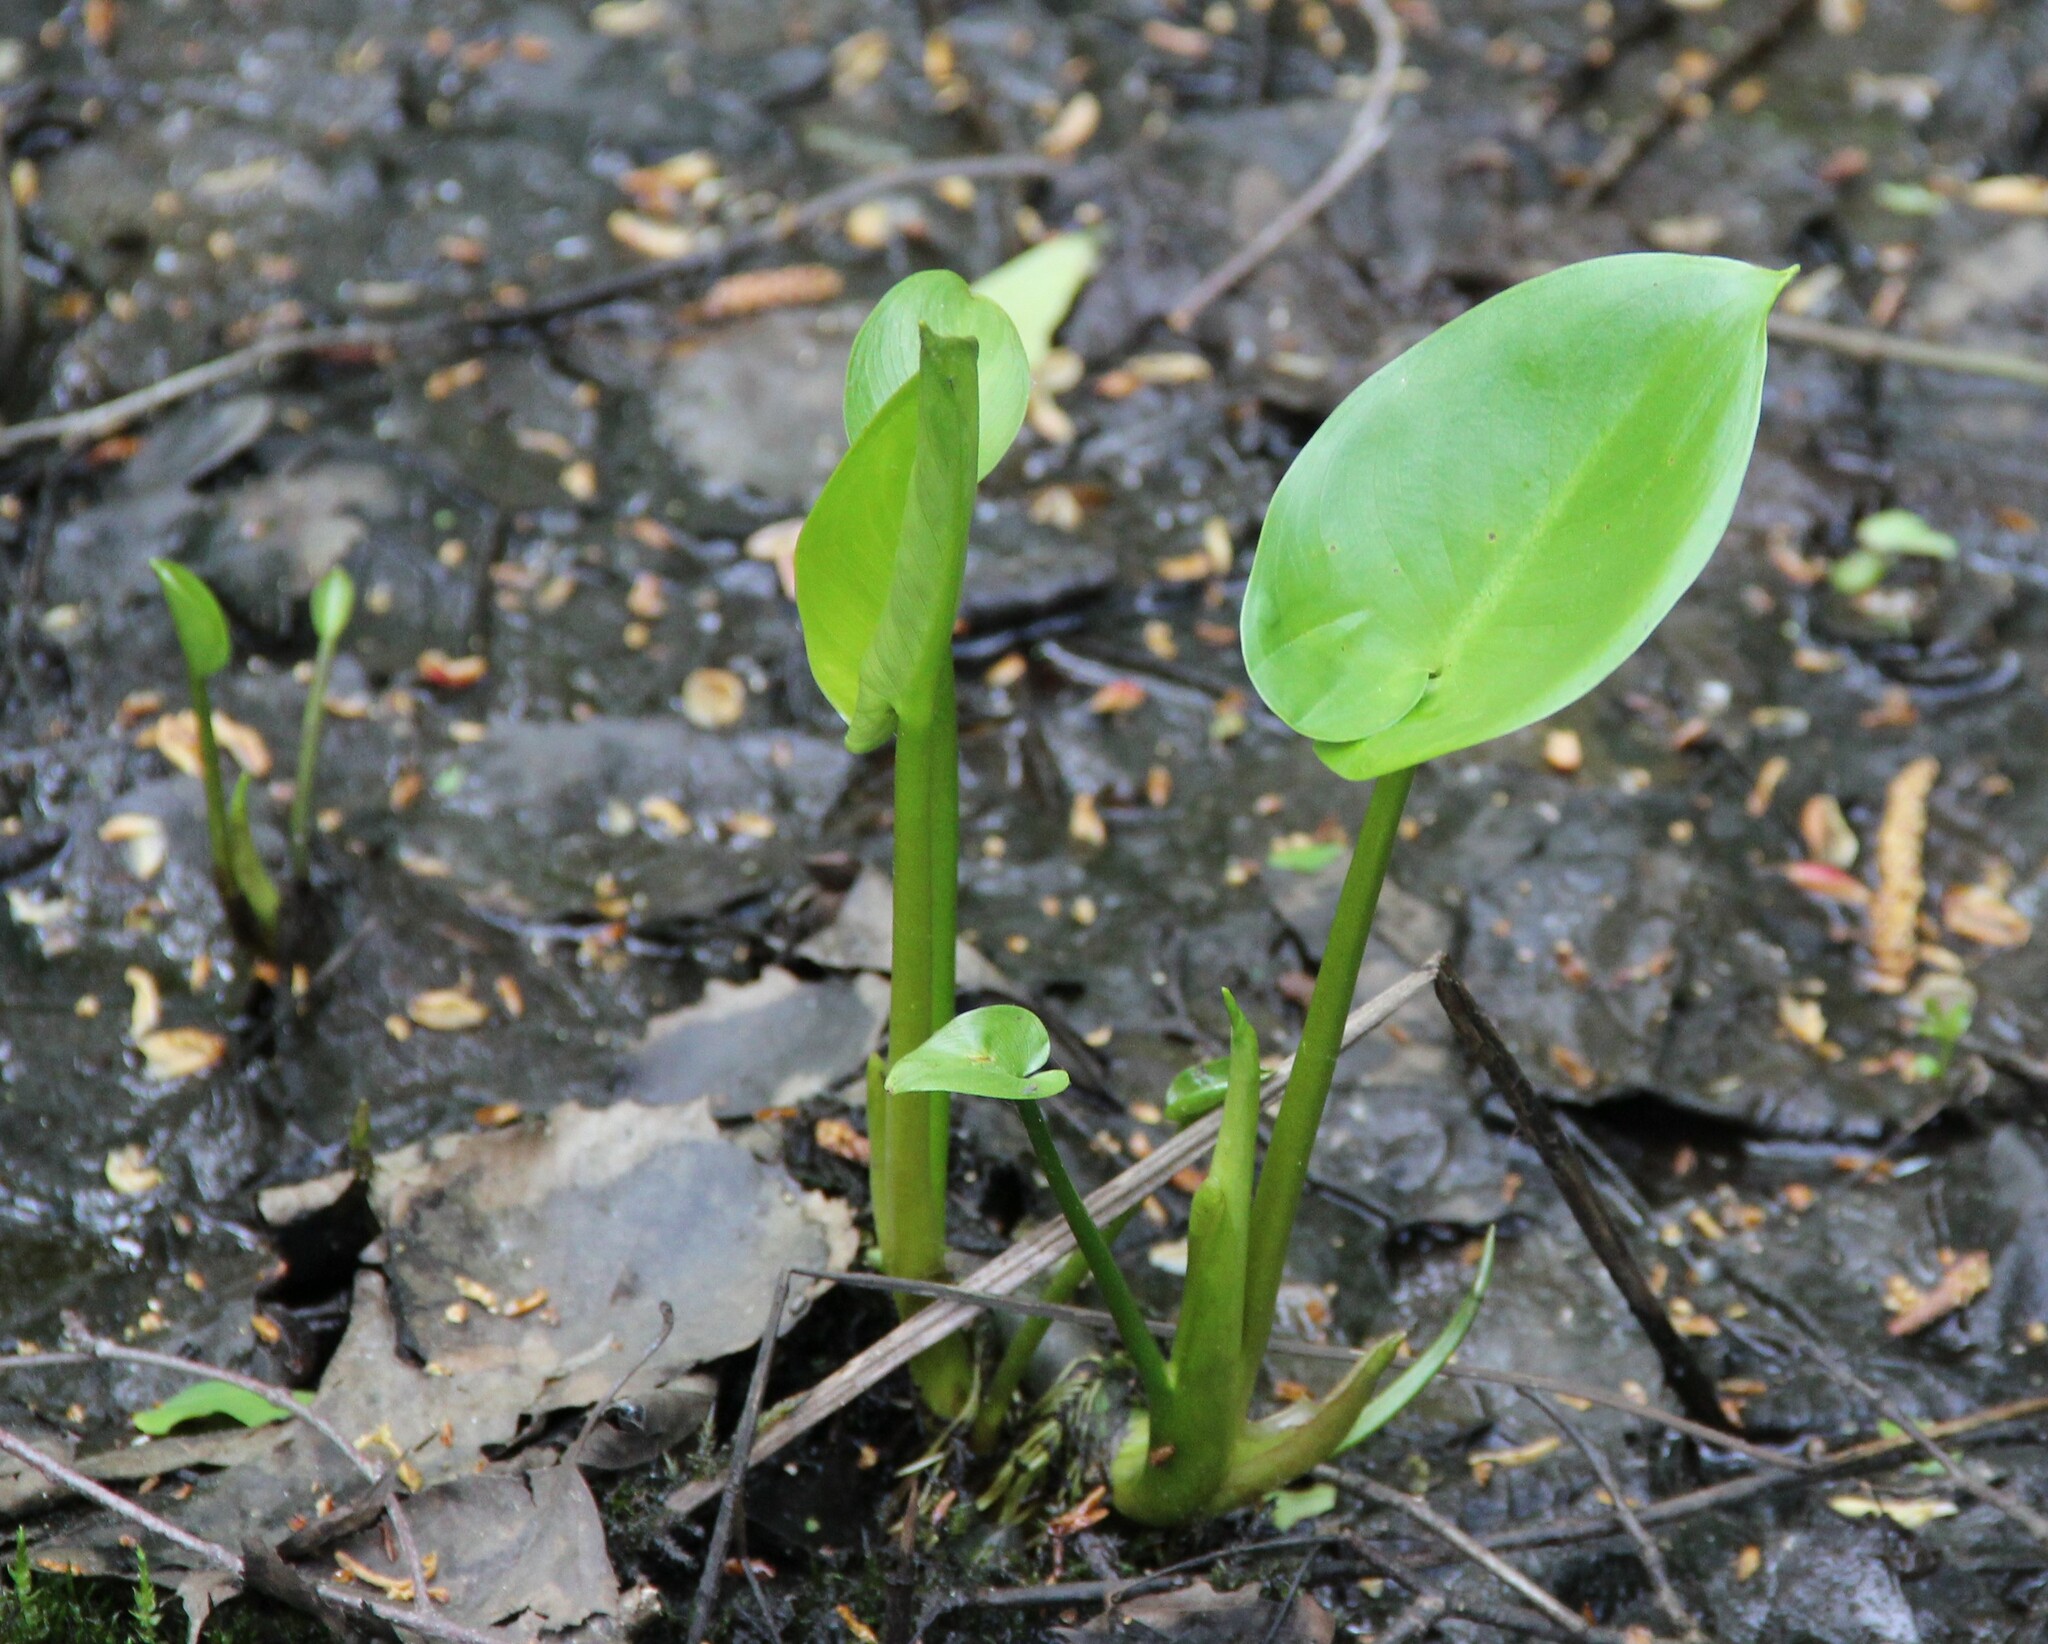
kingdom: Plantae
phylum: Tracheophyta
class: Liliopsida
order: Alismatales
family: Araceae
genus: Calla
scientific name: Calla palustris
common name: Bog arum
